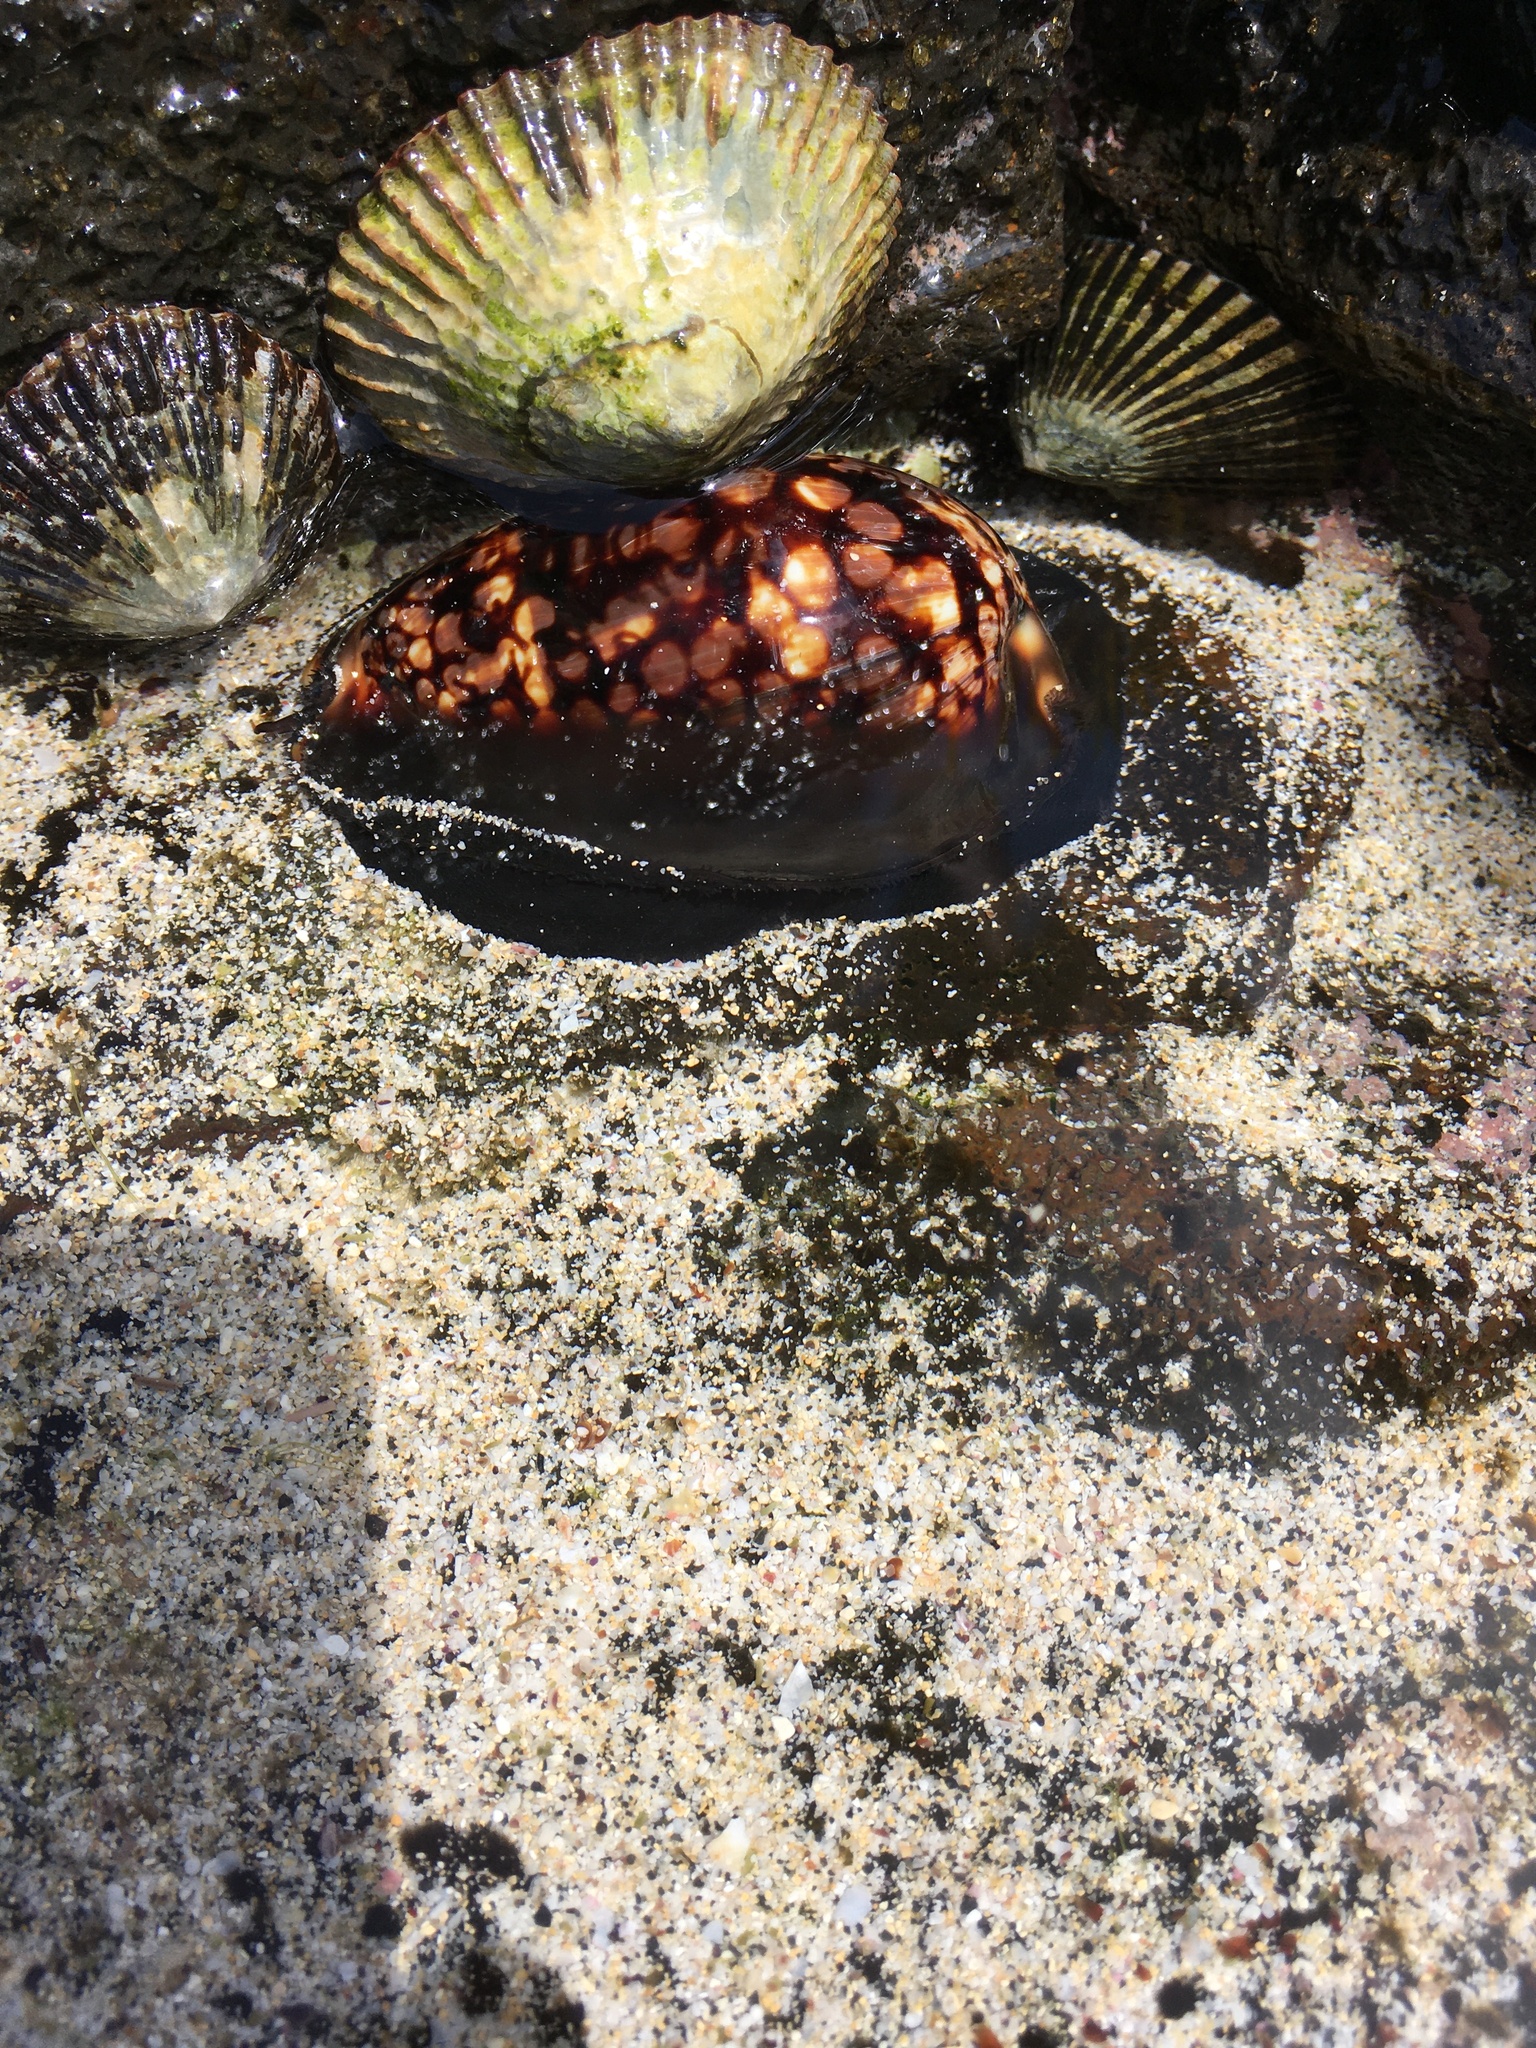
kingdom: Animalia
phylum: Mollusca
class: Gastropoda
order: Littorinimorpha
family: Cypraeidae
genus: Mauritia
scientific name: Mauritia mauritiana
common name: Hump-backed cowrie
